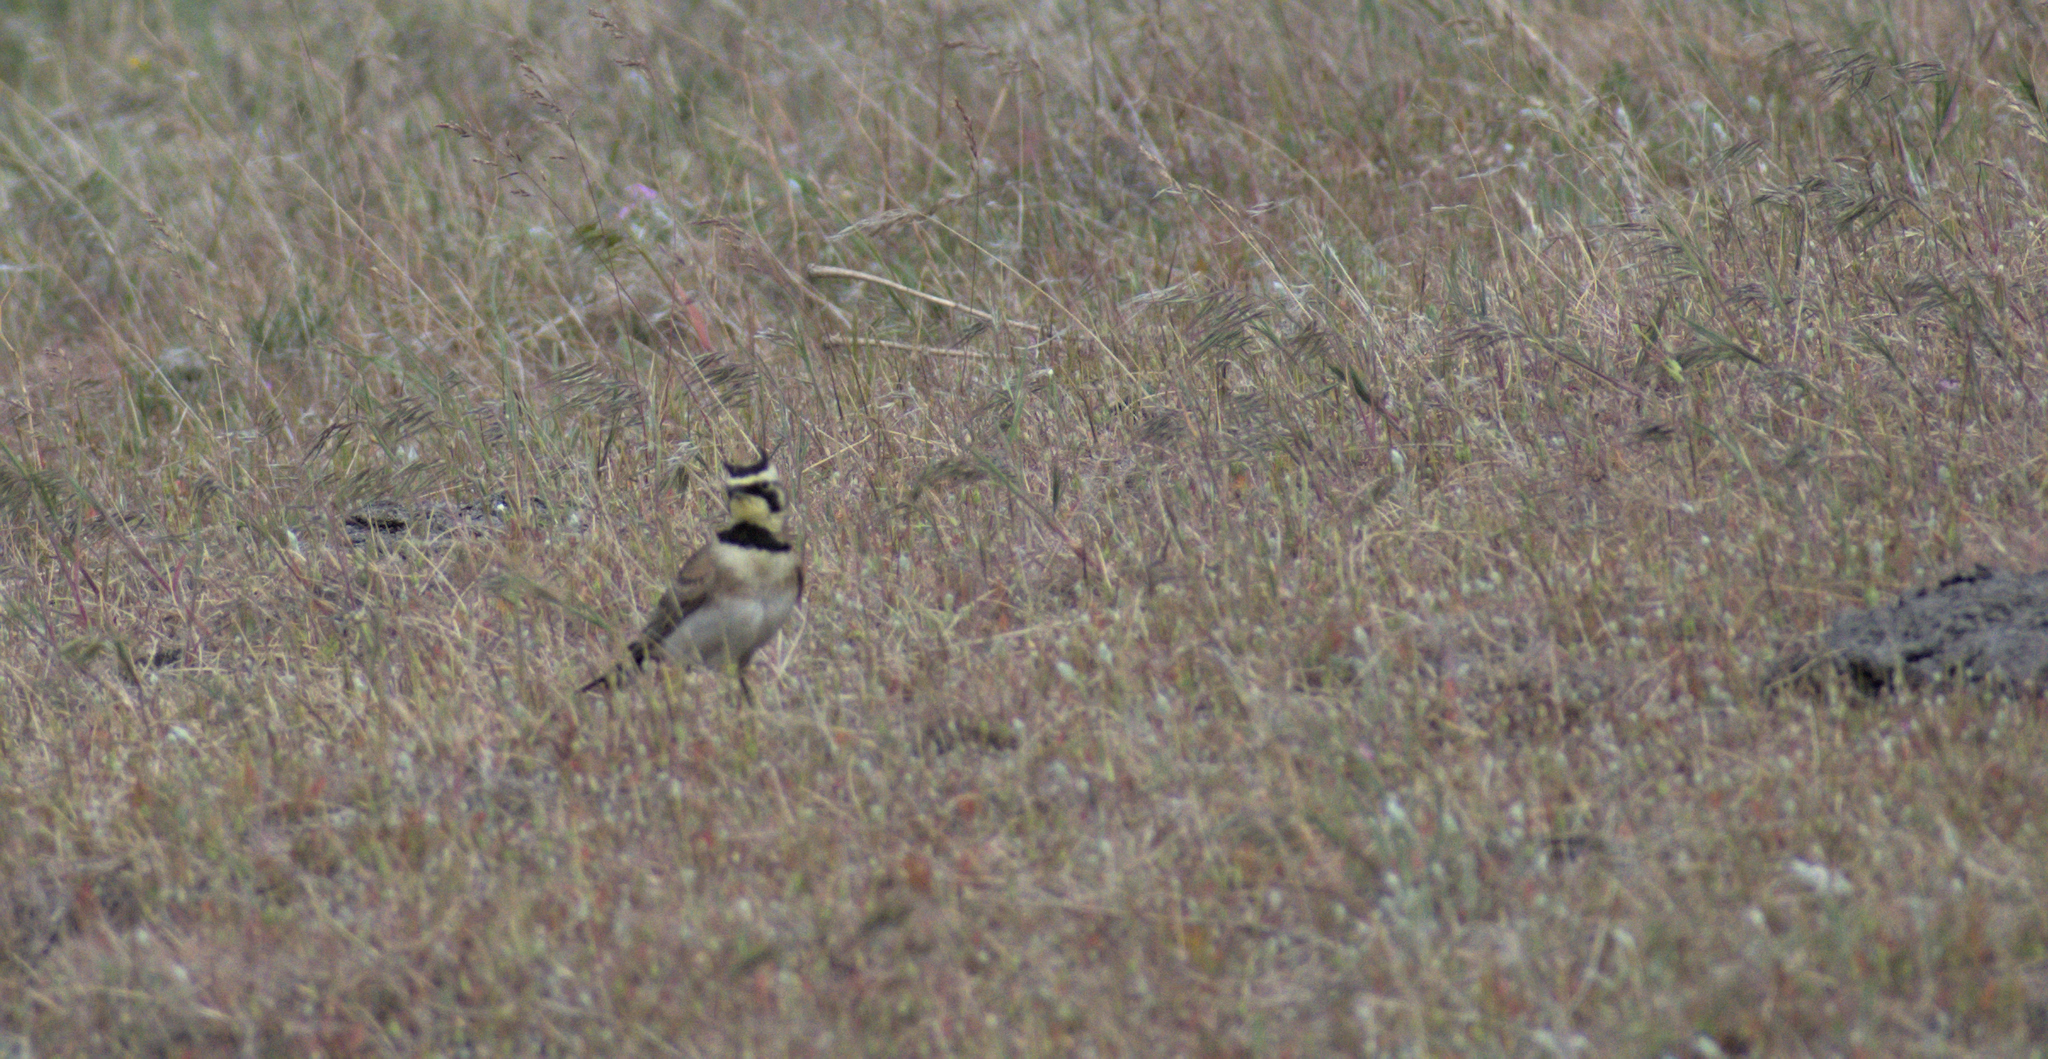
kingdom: Animalia
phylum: Chordata
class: Aves
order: Passeriformes
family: Alaudidae
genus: Eremophila
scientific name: Eremophila alpestris
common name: Horned lark
